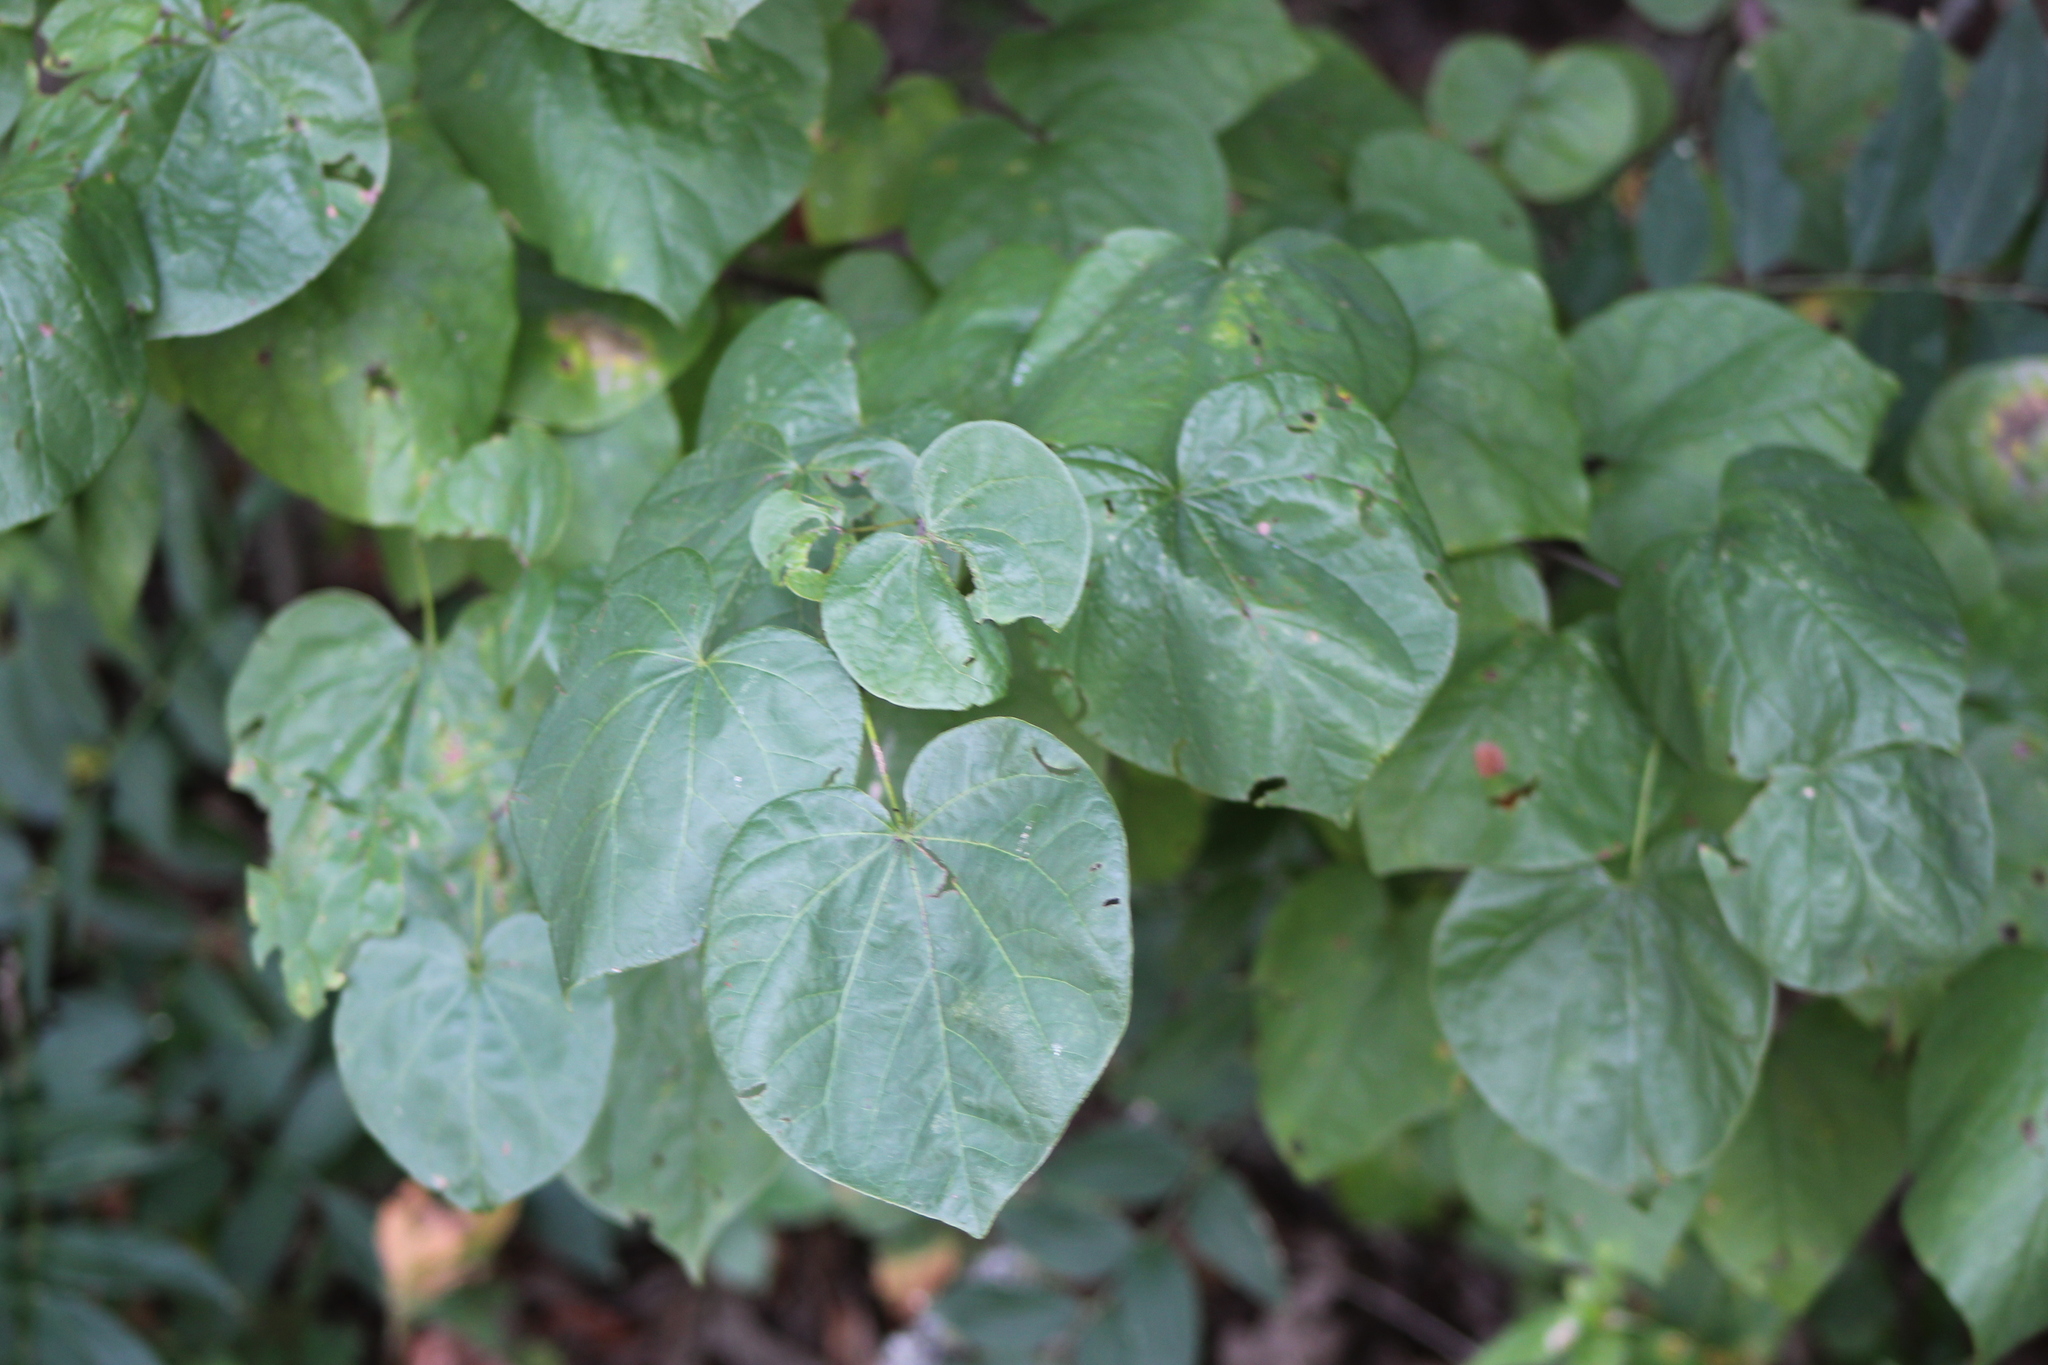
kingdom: Plantae
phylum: Tracheophyta
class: Magnoliopsida
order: Fabales
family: Fabaceae
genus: Cercis
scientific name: Cercis canadensis
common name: Eastern redbud
